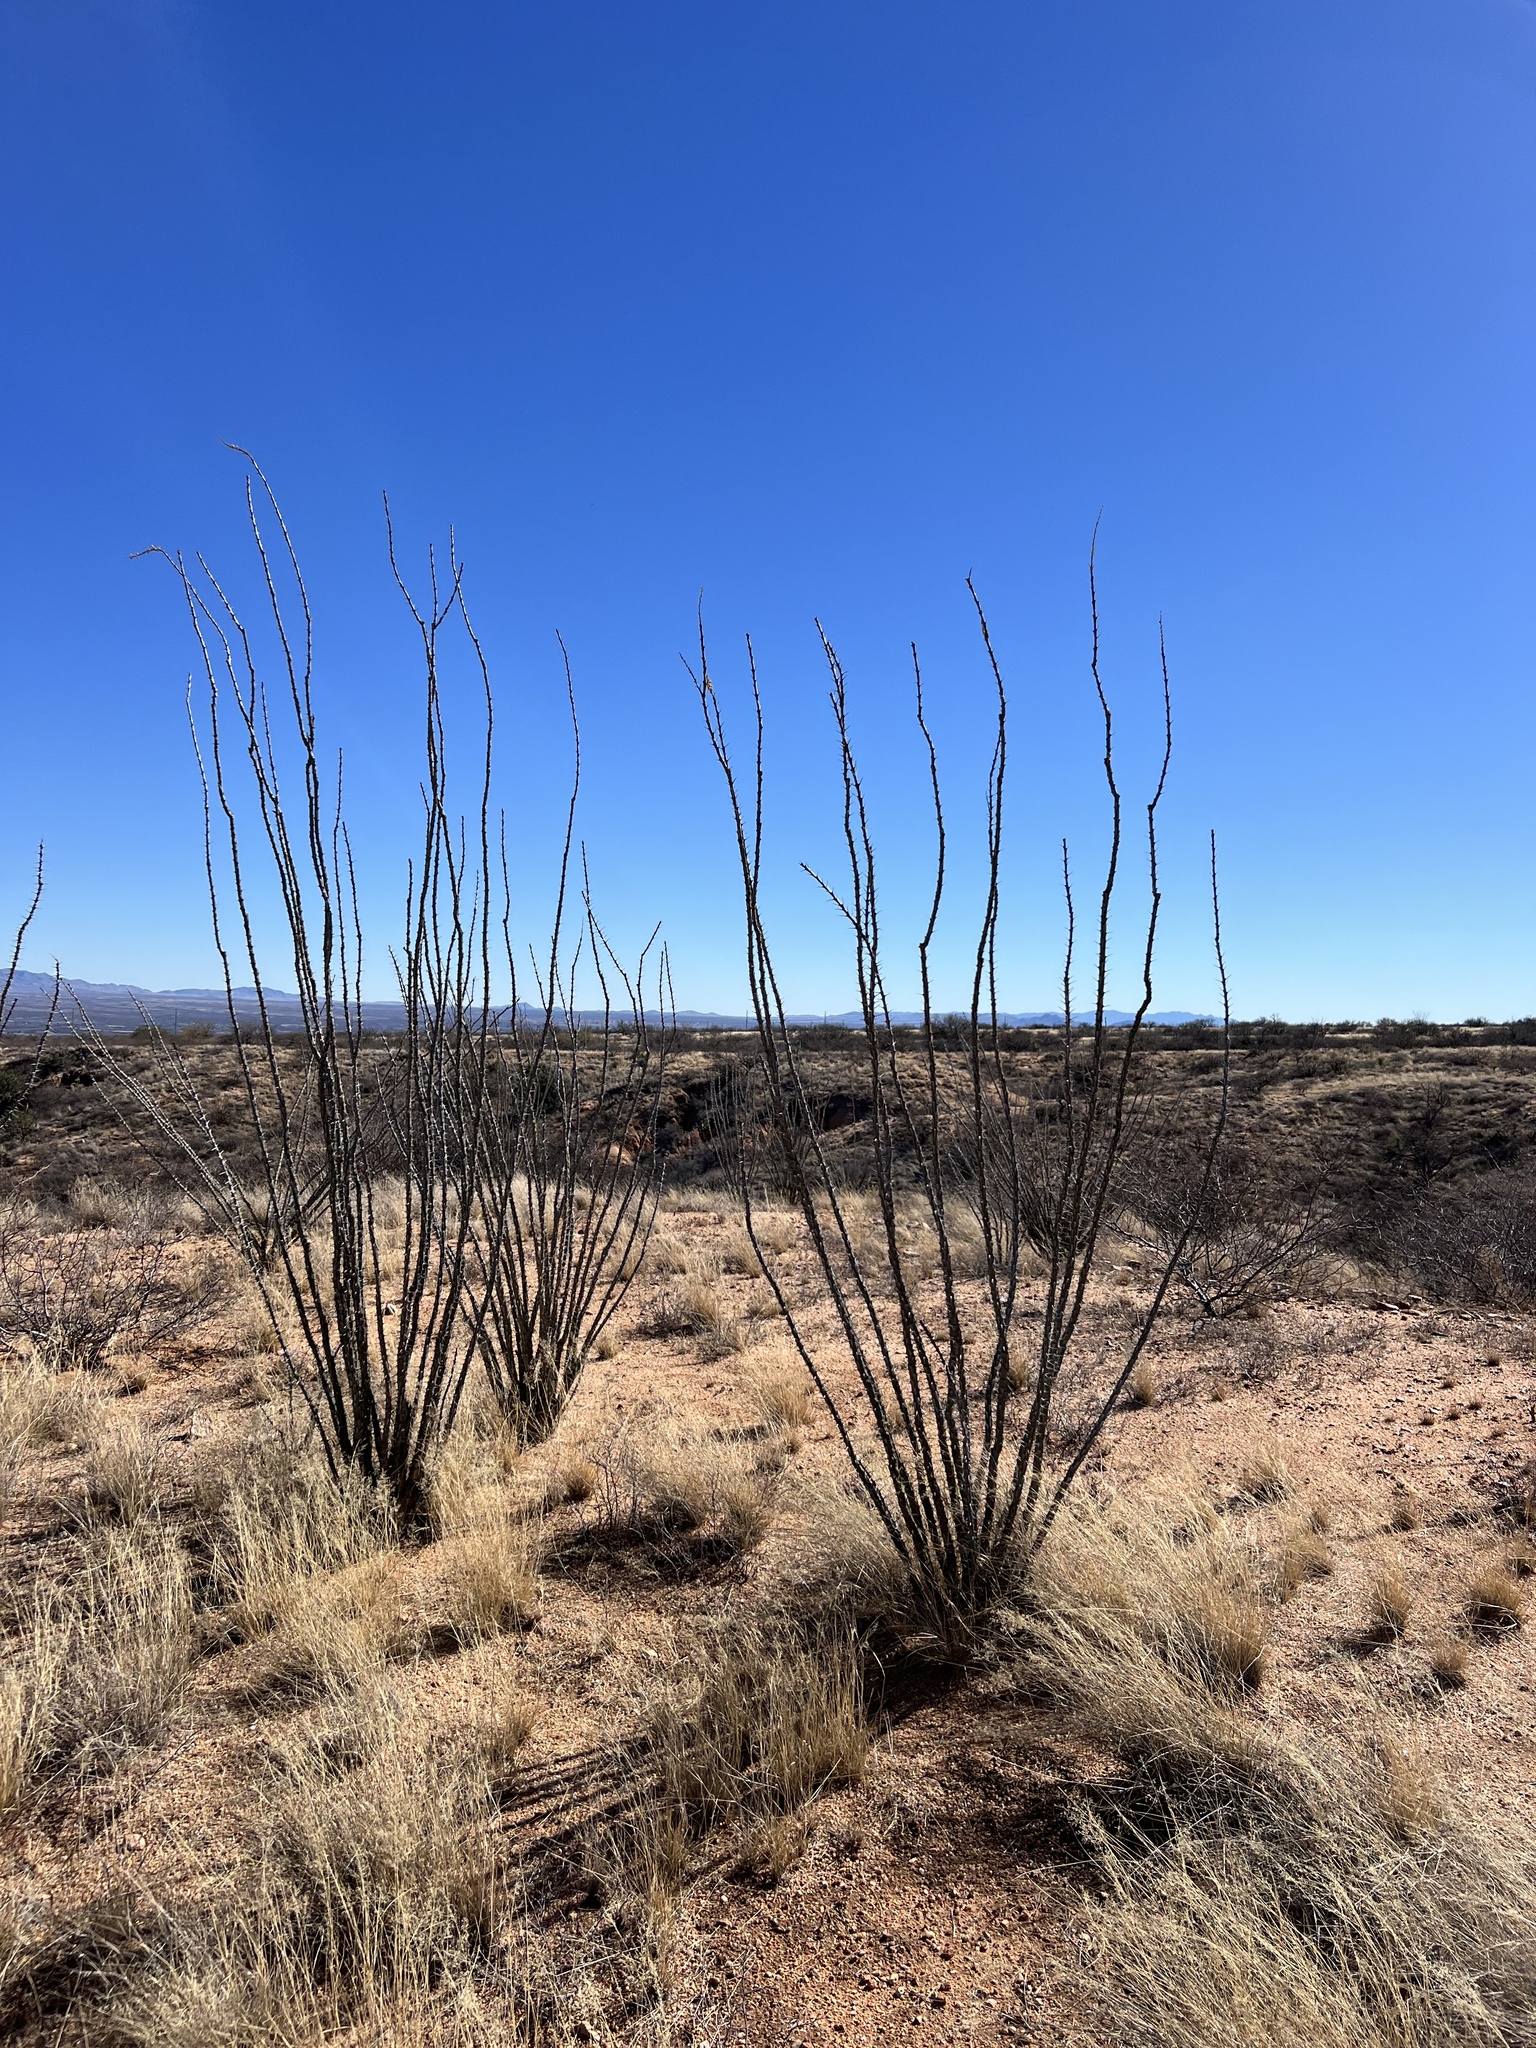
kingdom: Plantae
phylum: Tracheophyta
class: Magnoliopsida
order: Ericales
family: Fouquieriaceae
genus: Fouquieria
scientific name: Fouquieria splendens
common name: Vine-cactus
